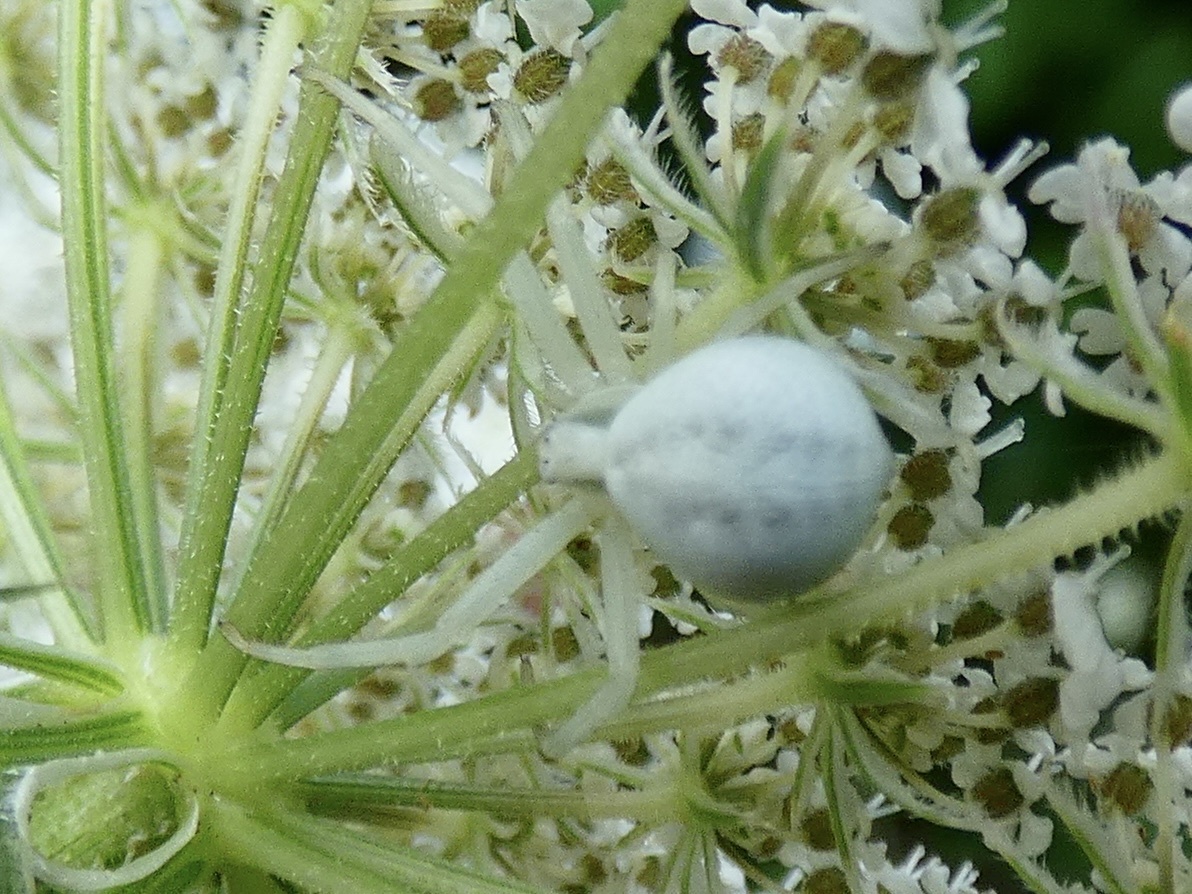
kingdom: Animalia
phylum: Arthropoda
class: Arachnida
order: Araneae
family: Thomisidae
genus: Misumena
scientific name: Misumena vatia
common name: Goldenrod crab spider
